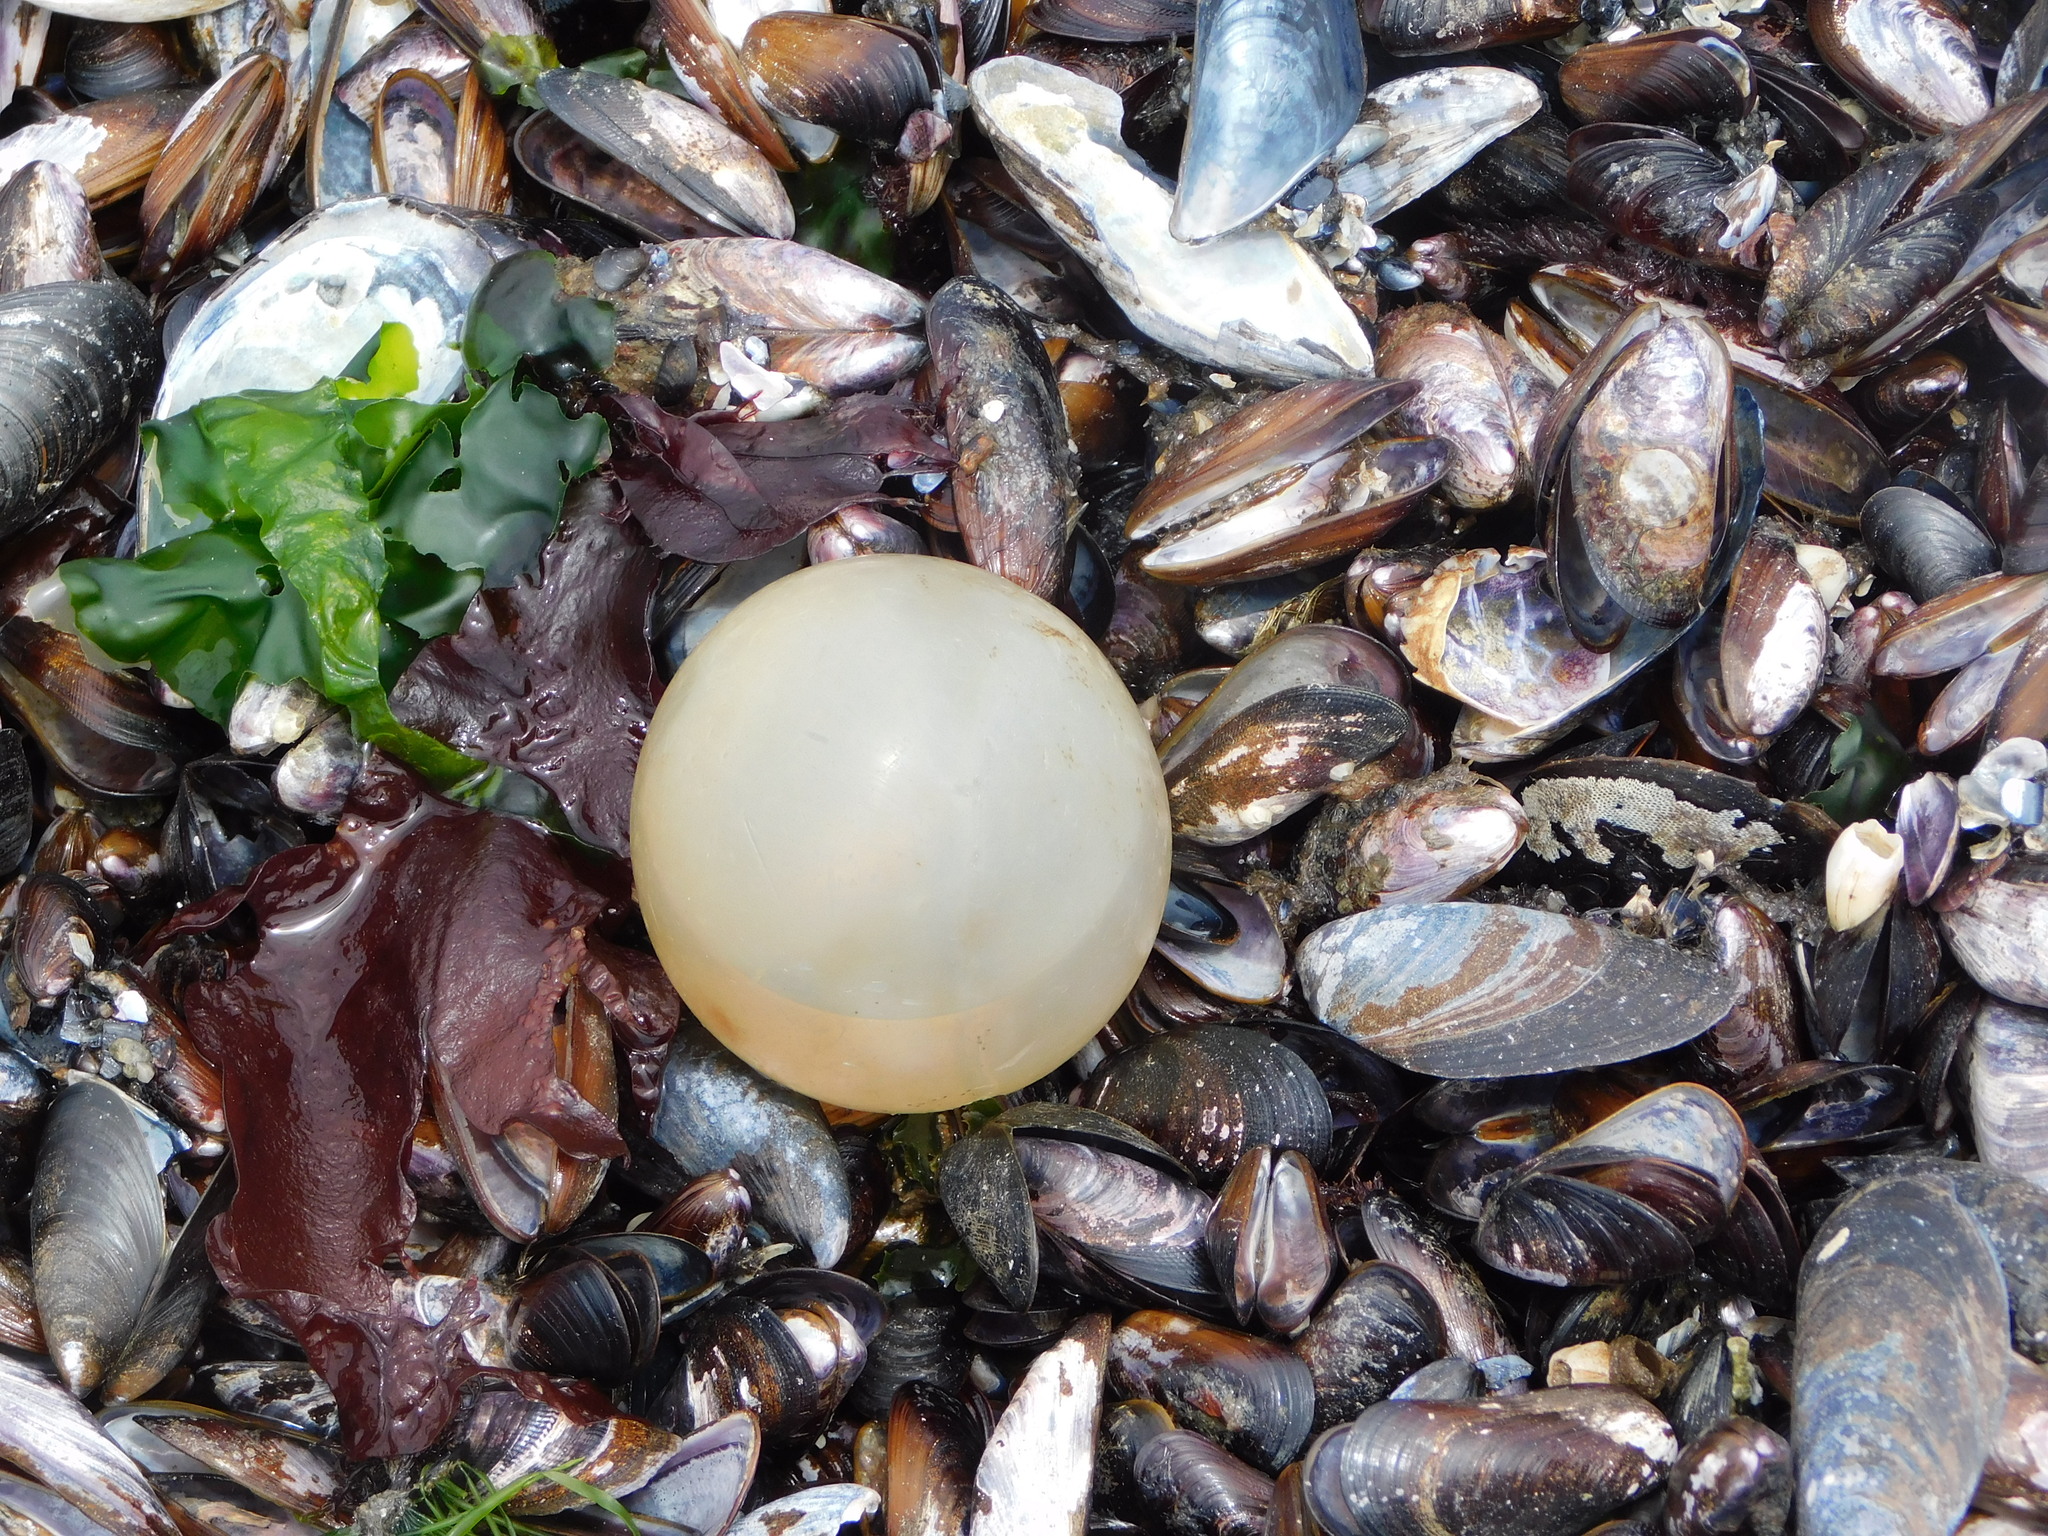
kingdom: Animalia
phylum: Mollusca
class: Gastropoda
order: Neogastropoda
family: Volutidae
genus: Pachycymbiola
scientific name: Pachycymbiola brasiliana
